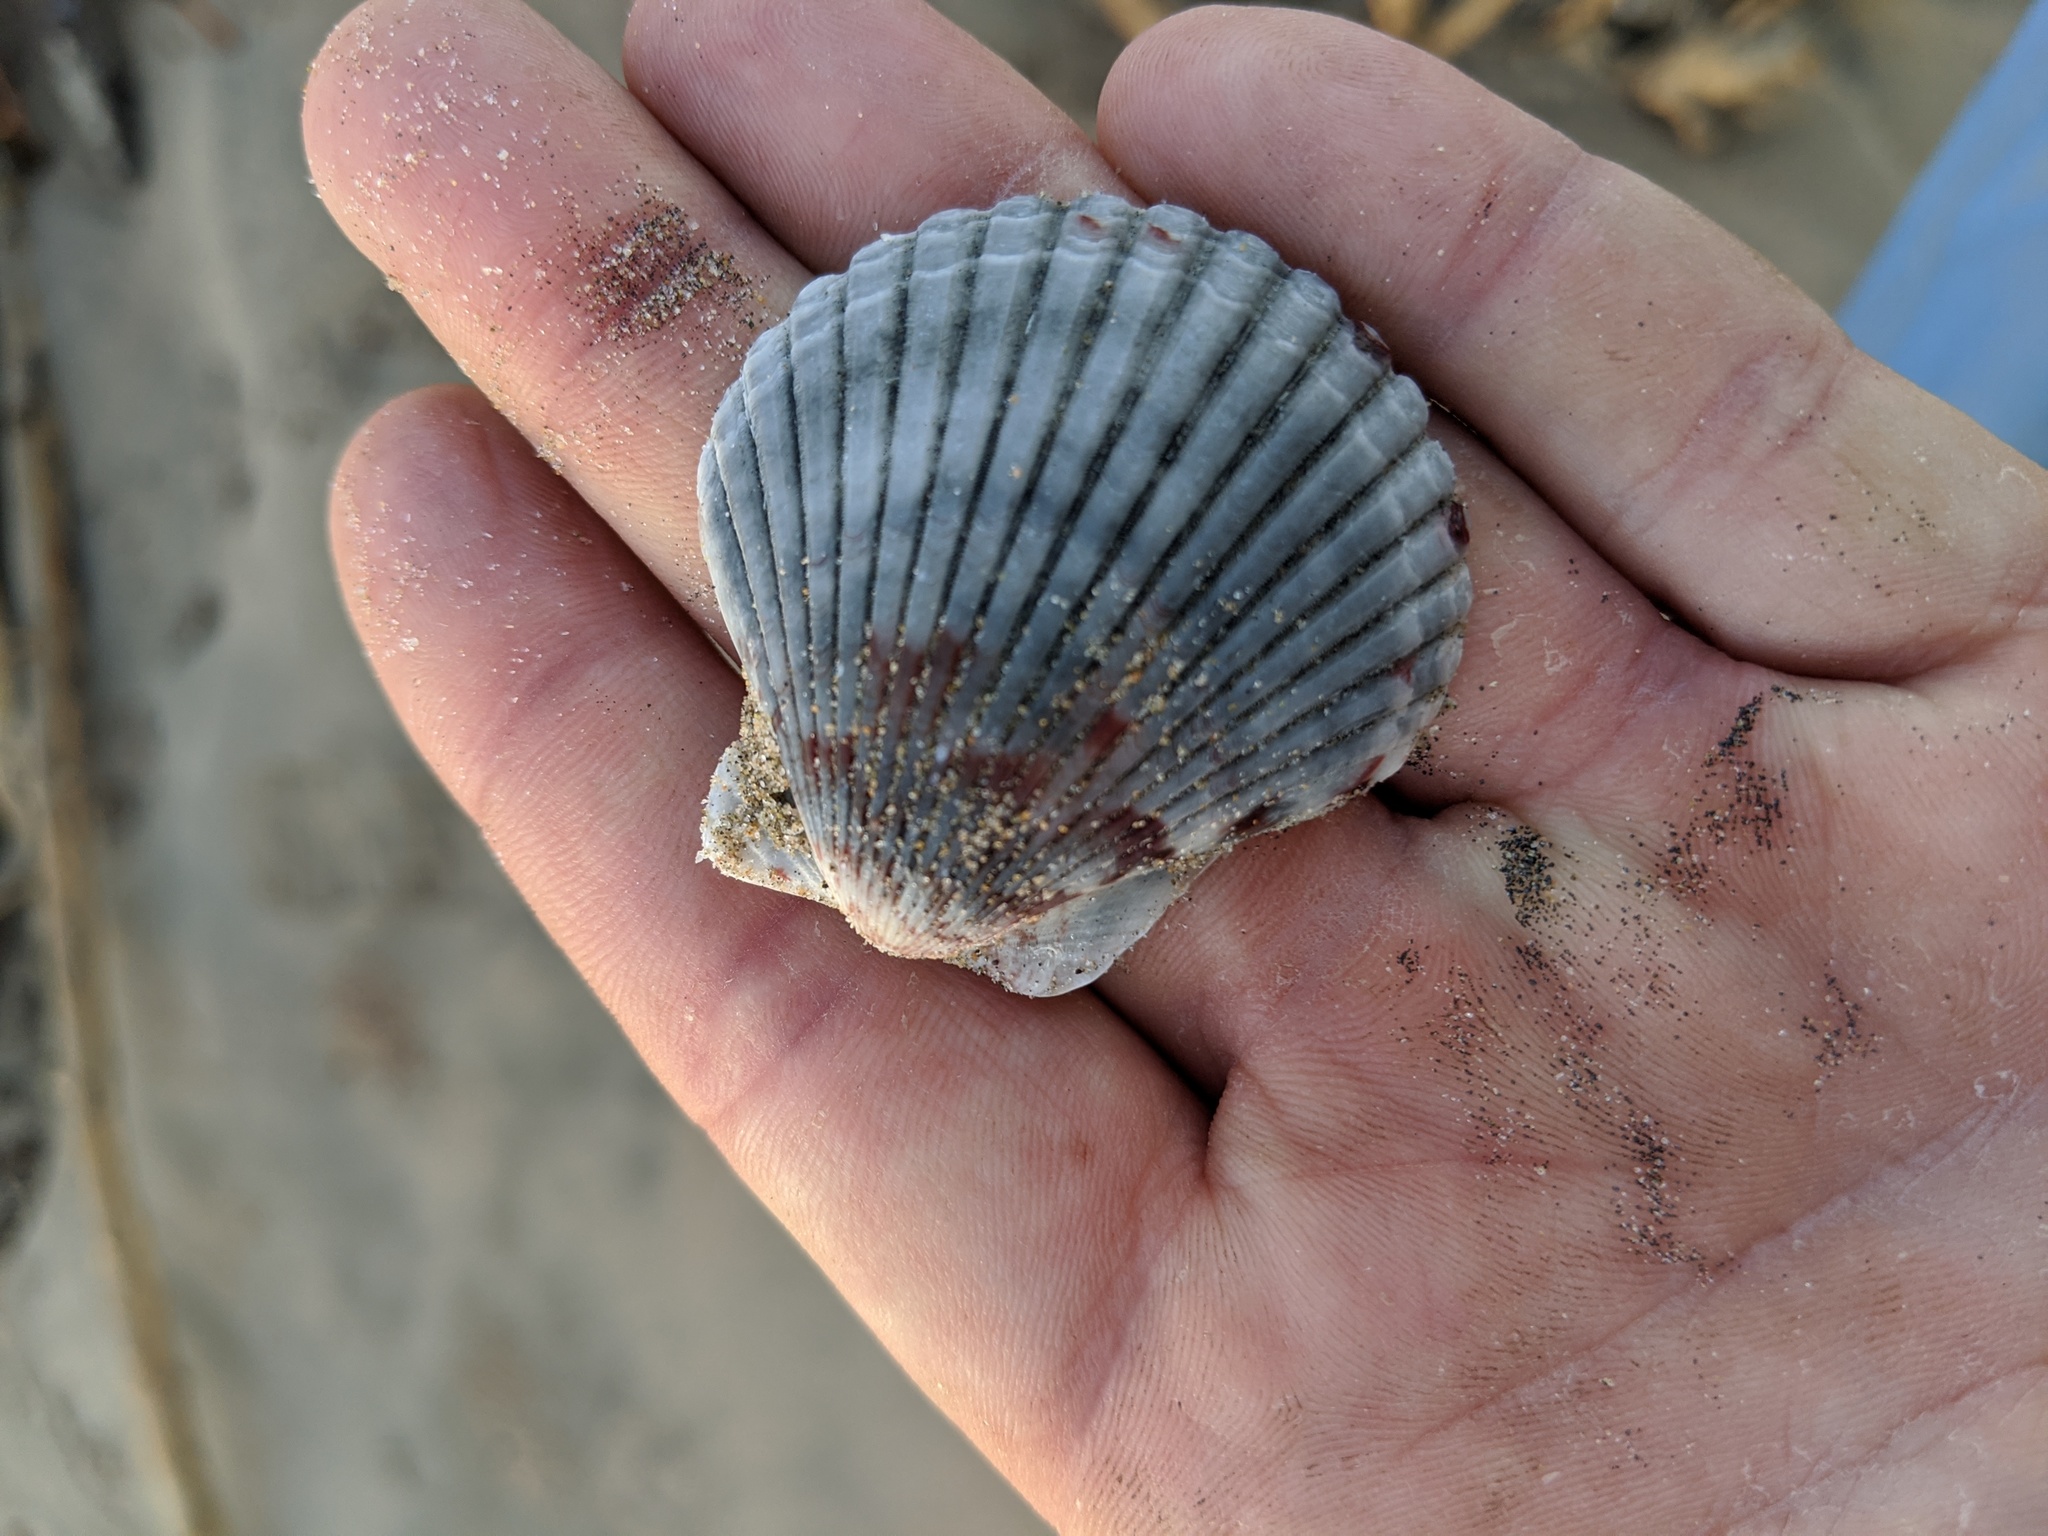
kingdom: Animalia
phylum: Mollusca
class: Bivalvia
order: Pectinida
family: Pectinidae
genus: Argopecten
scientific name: Argopecten ventricosus
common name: Catarina scallop
